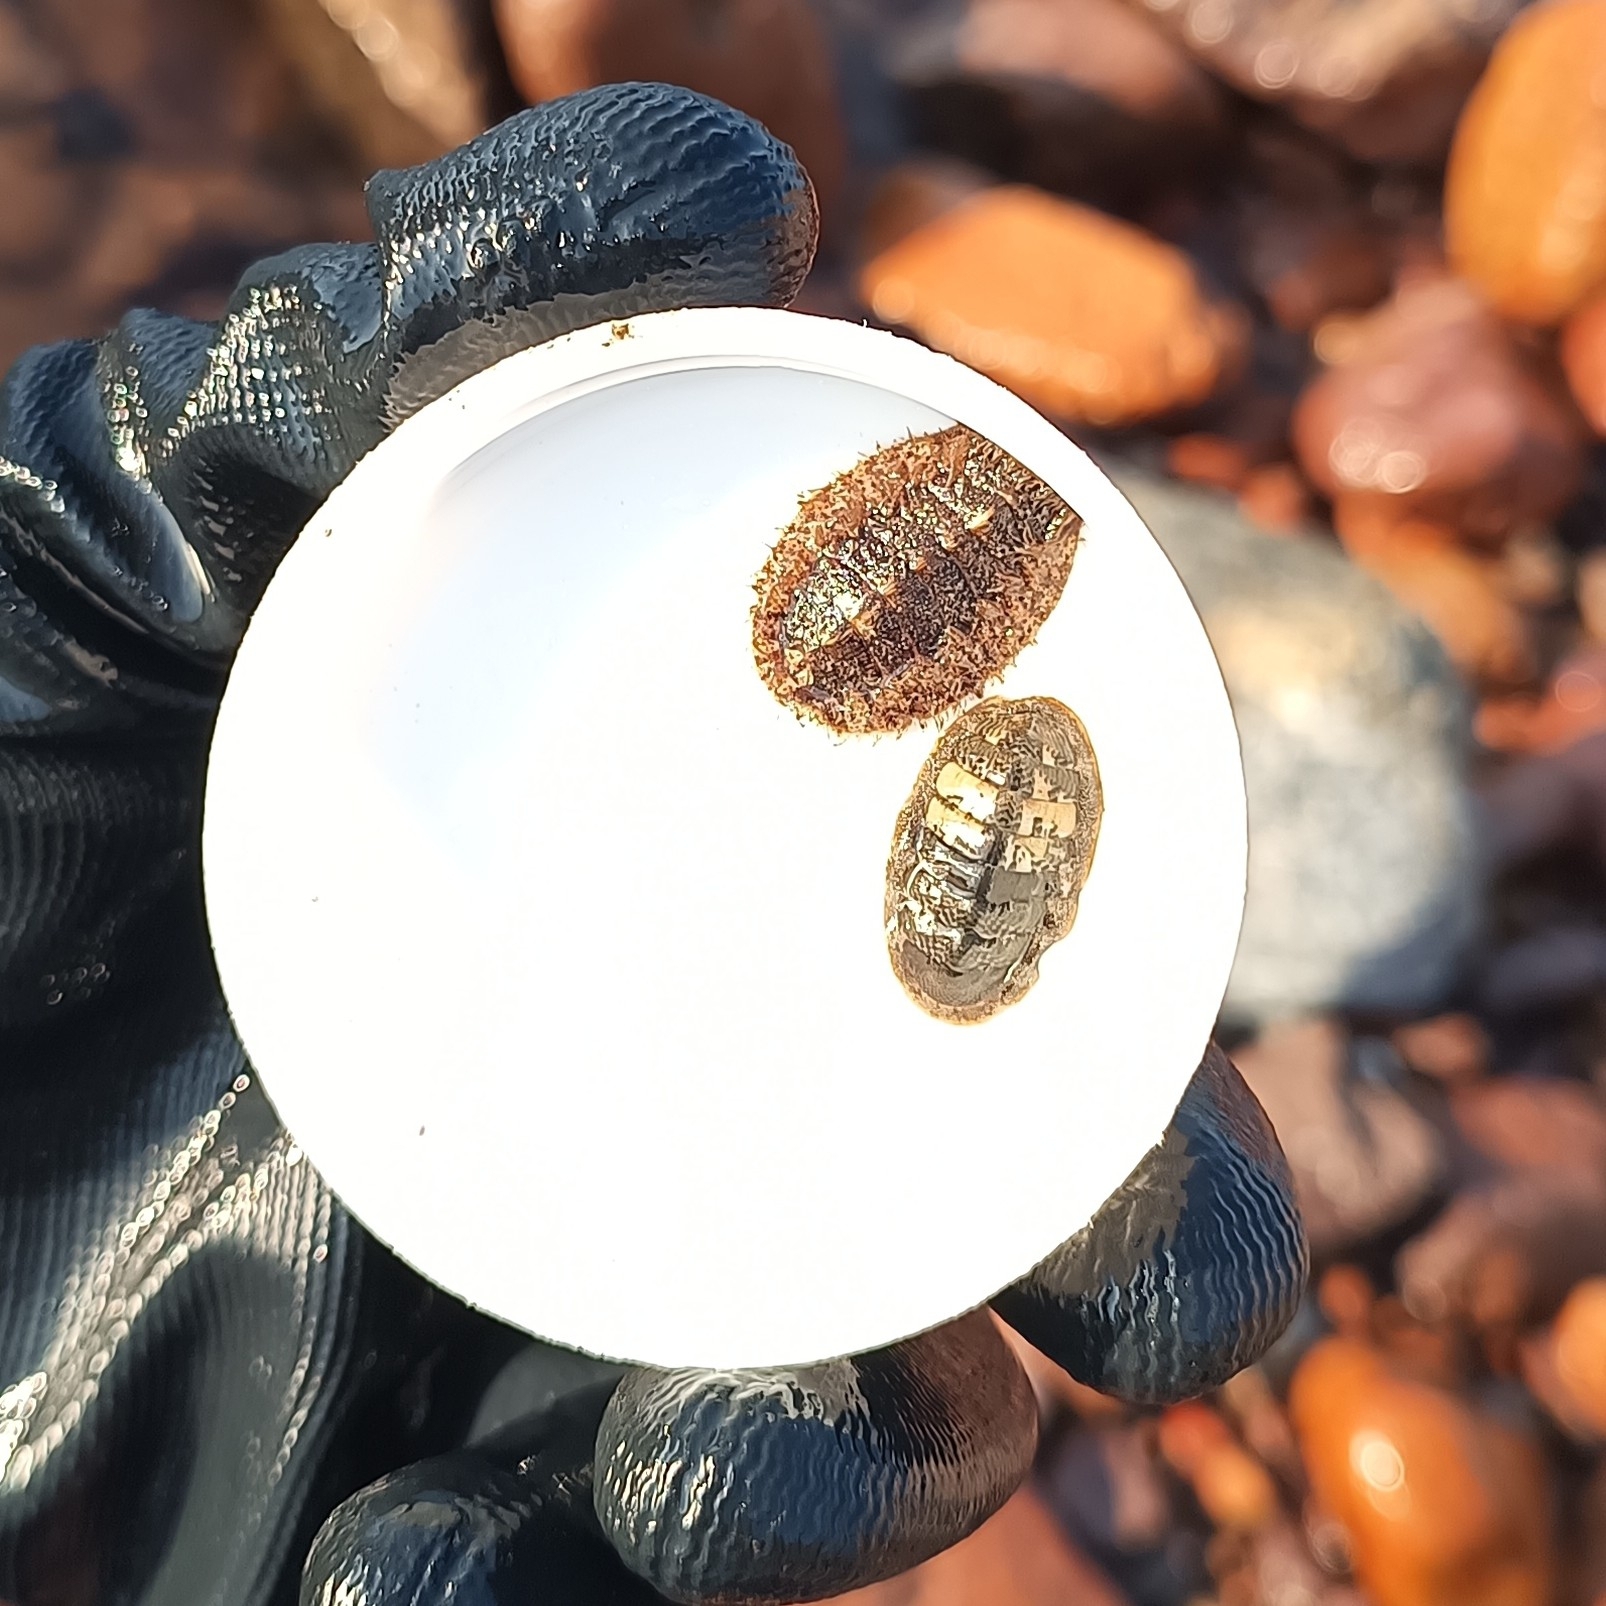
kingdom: Animalia
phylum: Mollusca
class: Polyplacophora
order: Chitonida
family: Chaetopleuridae
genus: Chaetopleura
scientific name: Chaetopleura lurida
